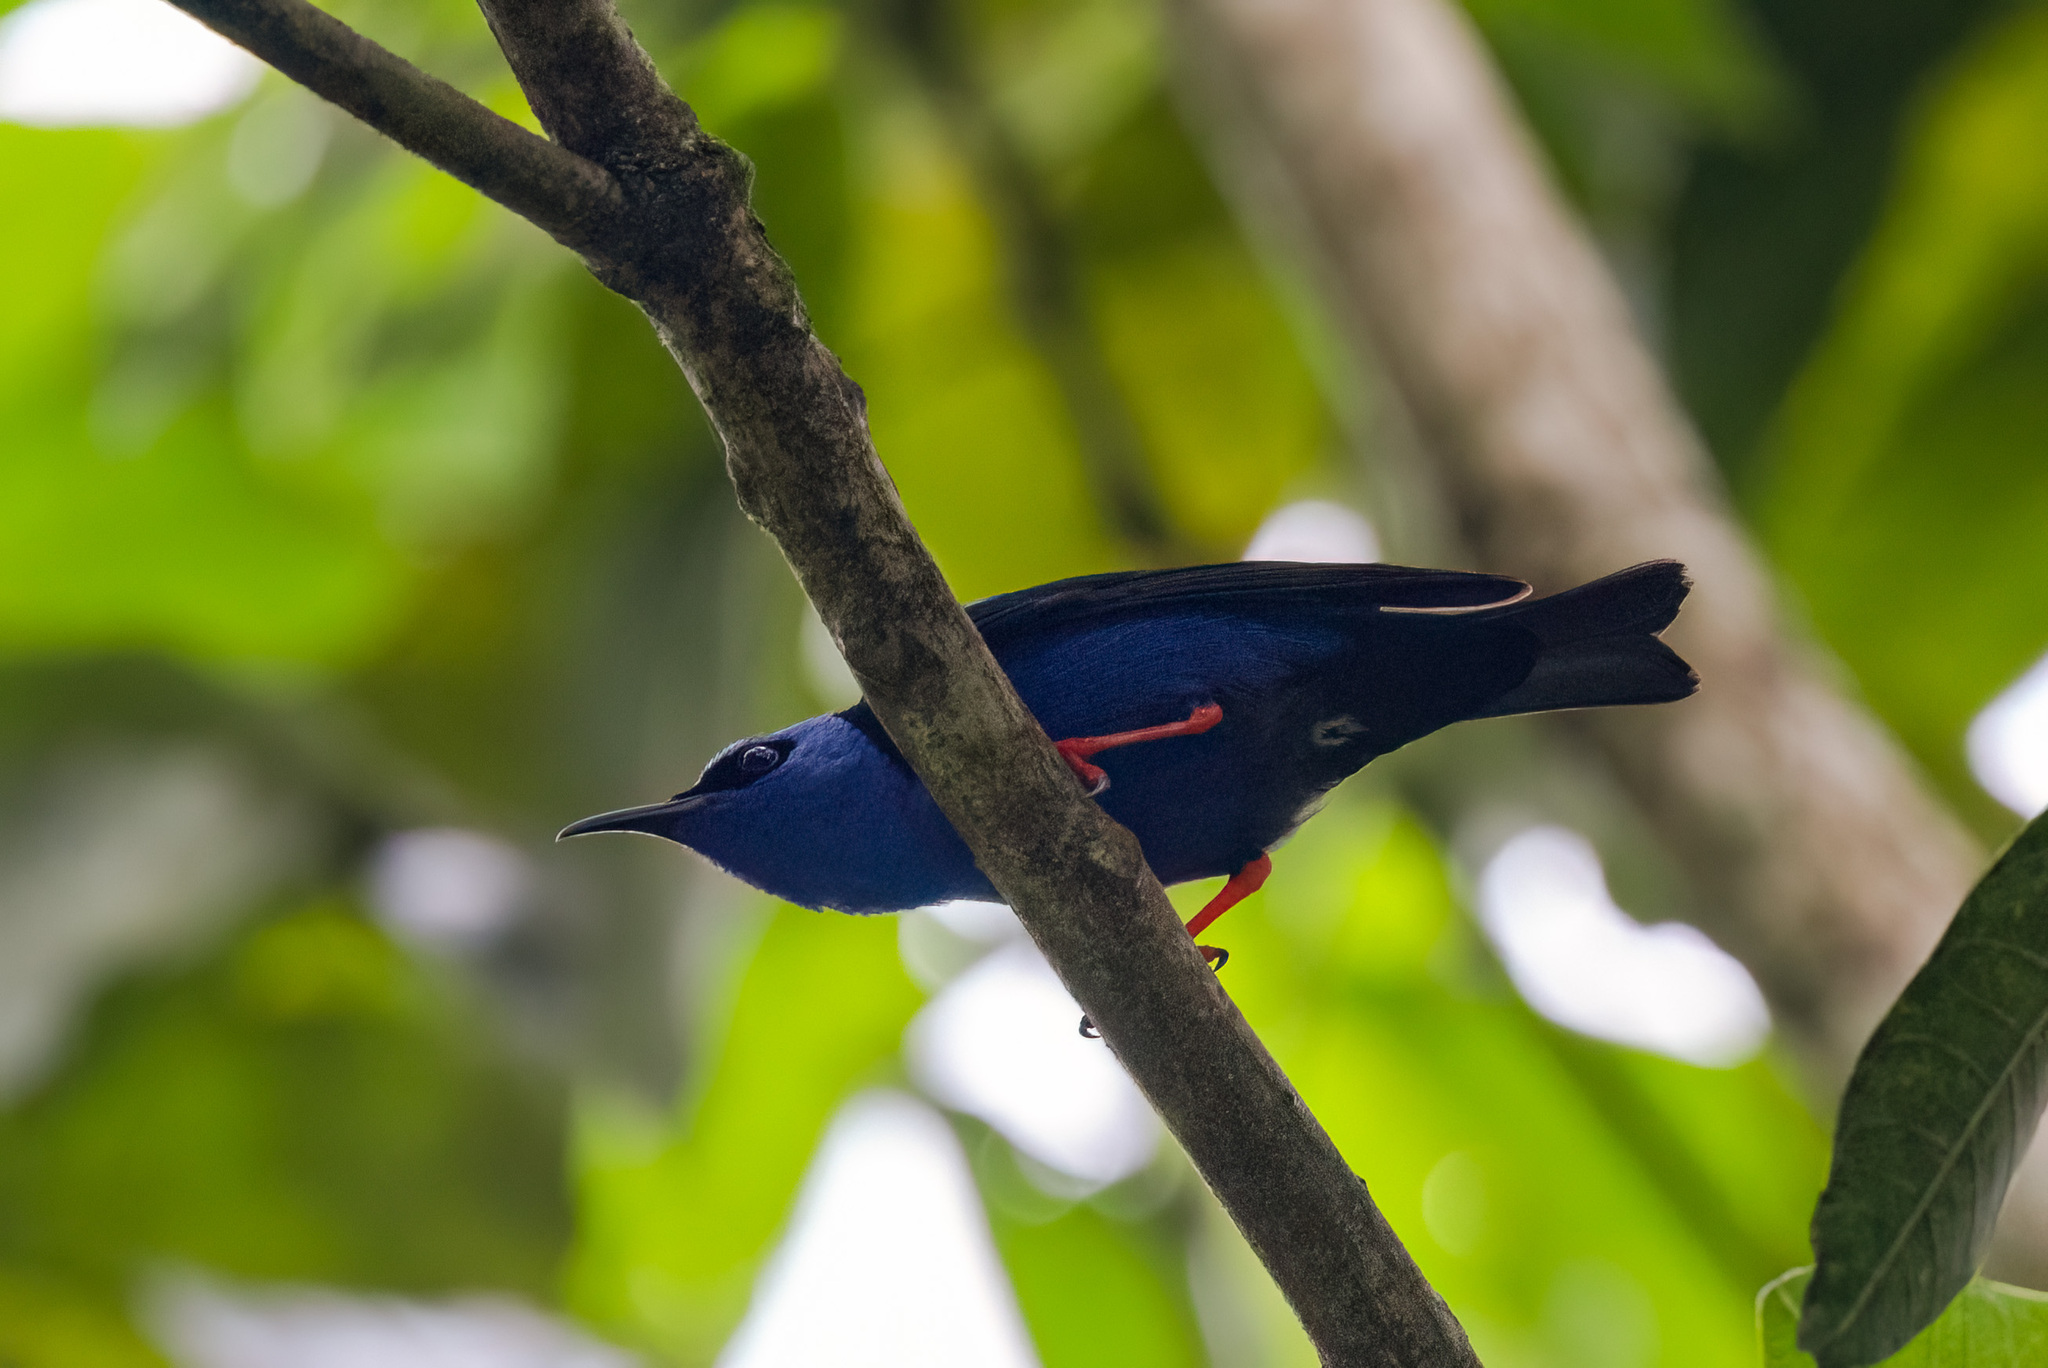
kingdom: Animalia
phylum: Chordata
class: Aves
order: Passeriformes
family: Thraupidae
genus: Cyanerpes
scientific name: Cyanerpes cyaneus
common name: Red-legged honeycreeper
